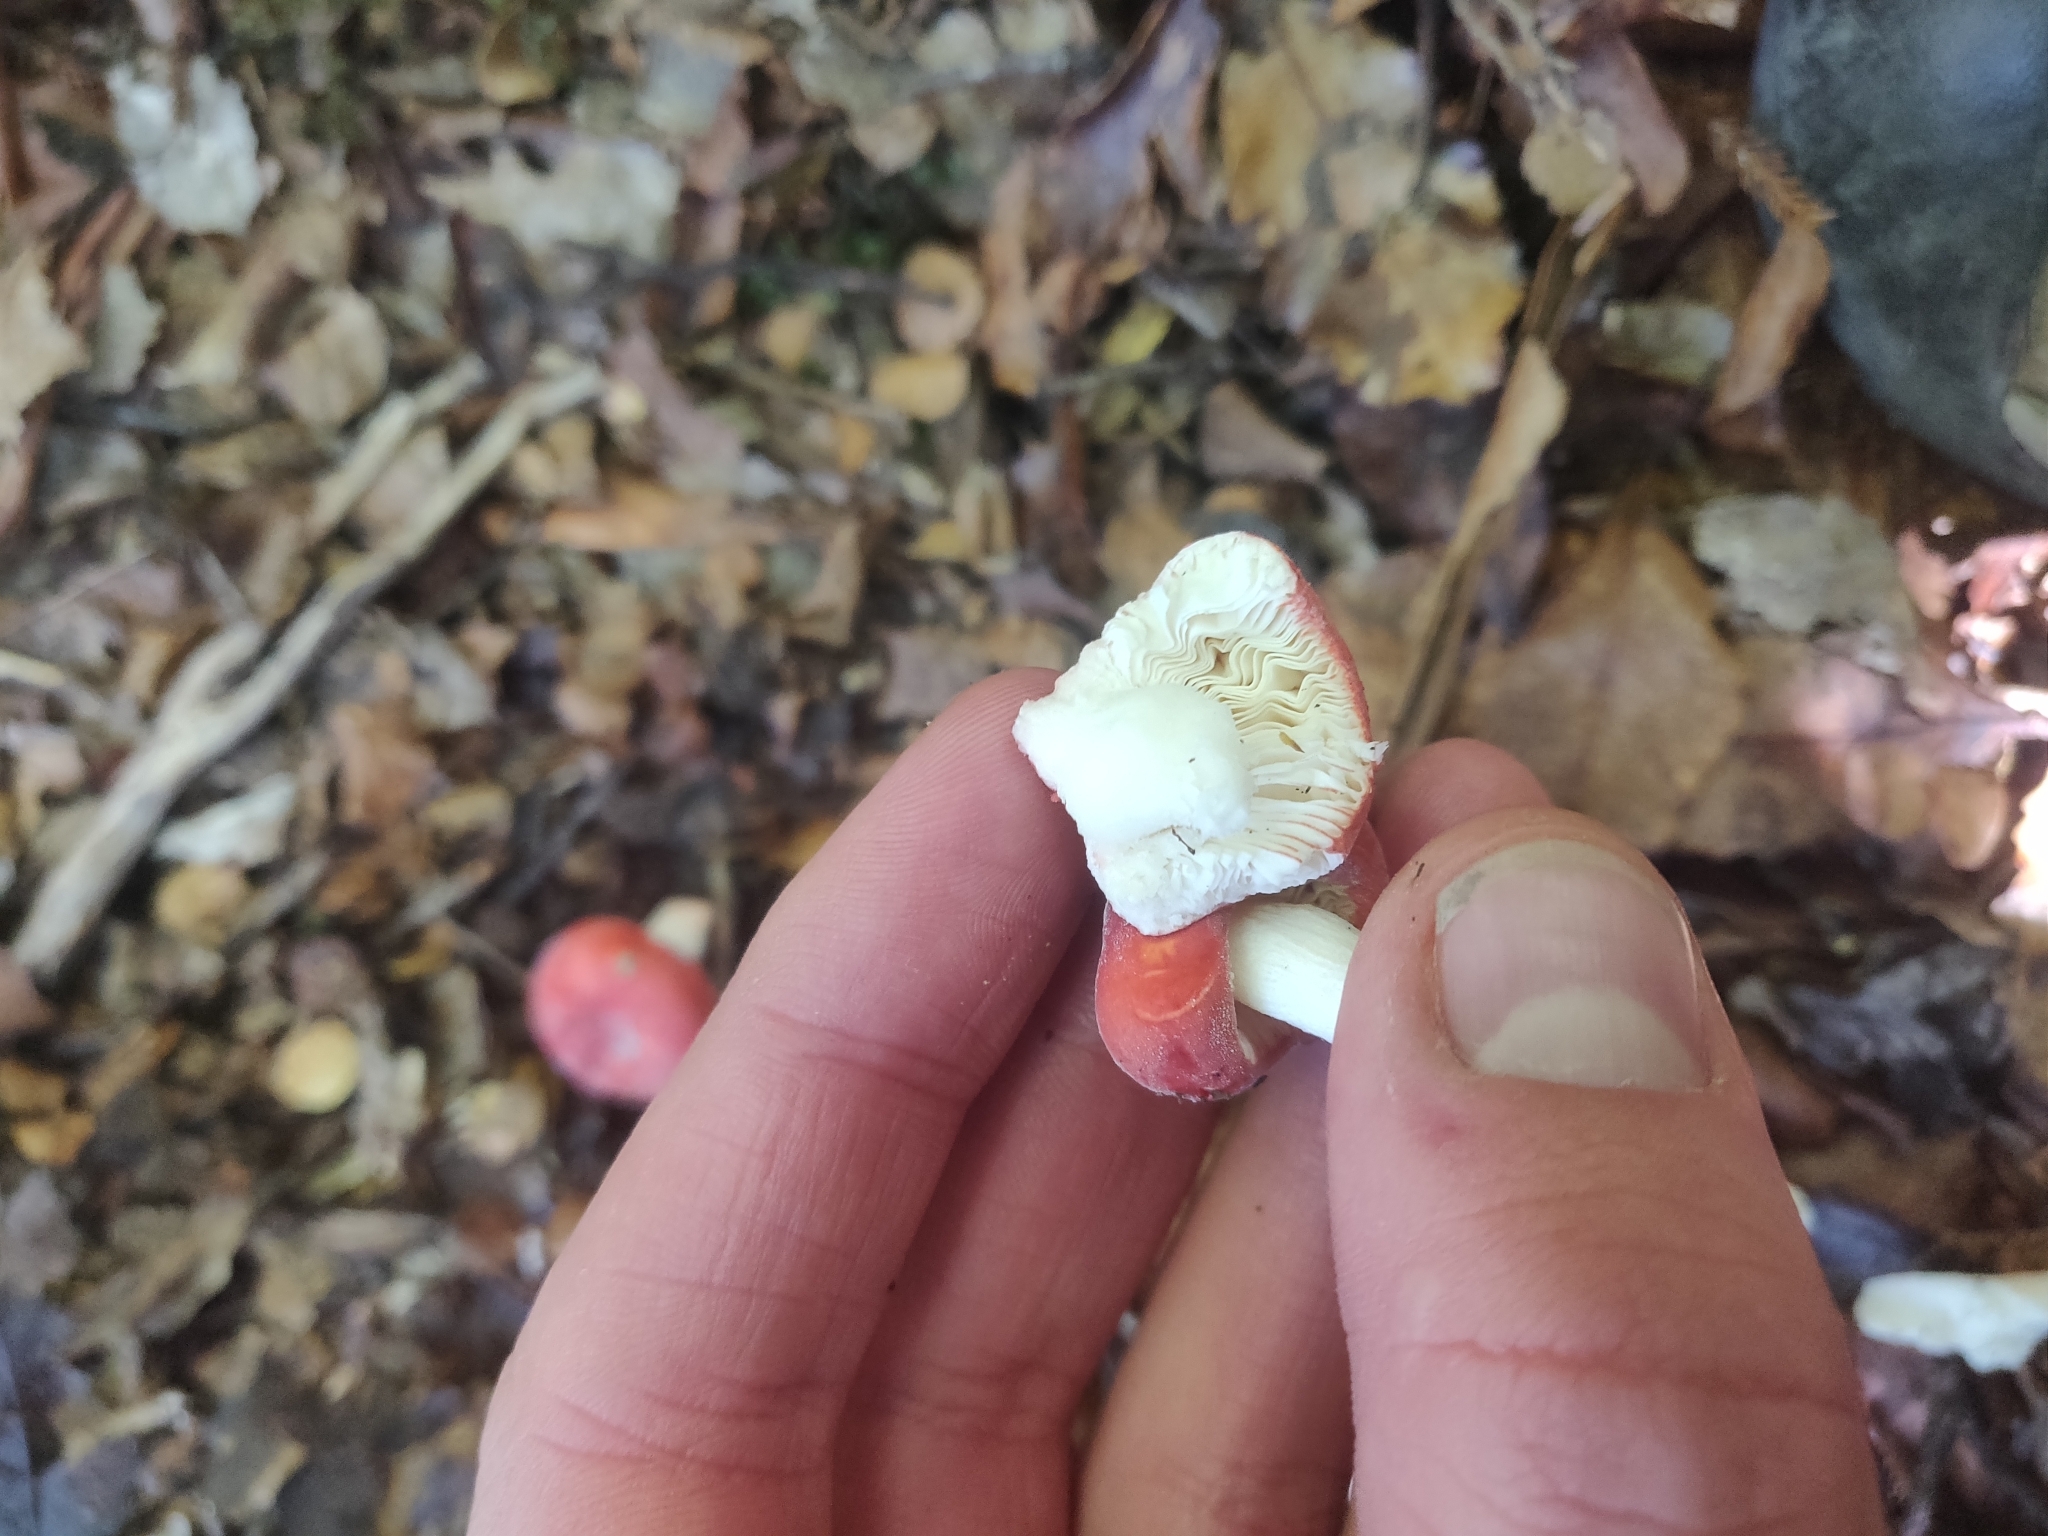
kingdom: Fungi
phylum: Basidiomycota
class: Agaricomycetes
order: Russulales
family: Russulaceae
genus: Russula
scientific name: Russula kermesina
